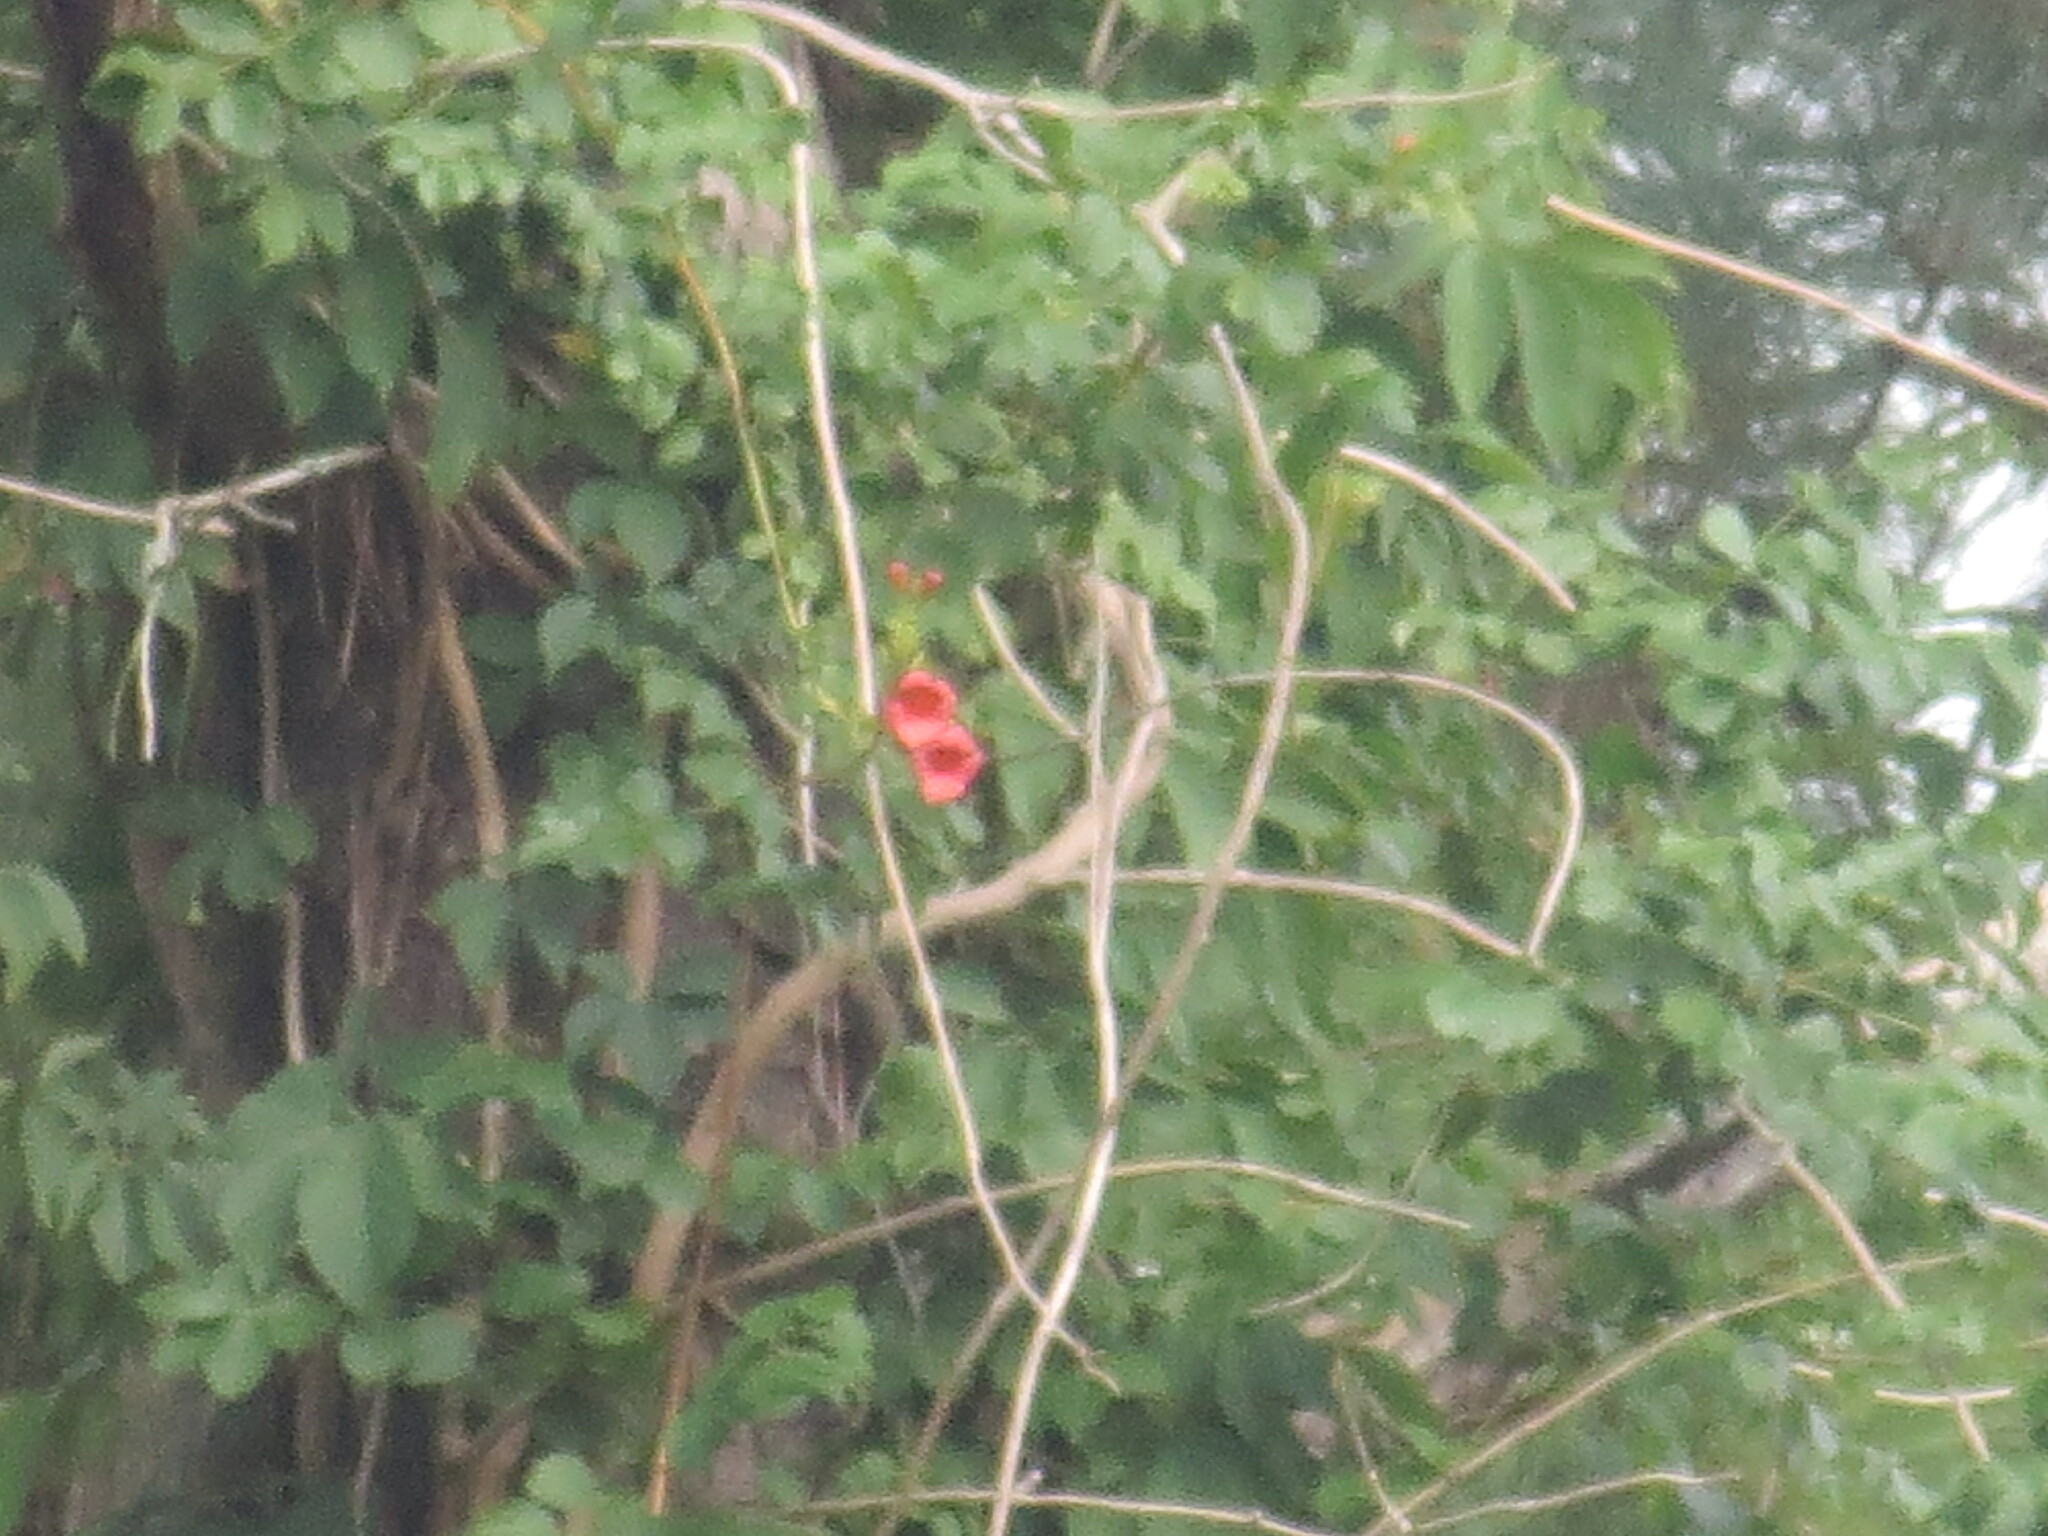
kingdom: Plantae
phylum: Tracheophyta
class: Magnoliopsida
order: Lamiales
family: Bignoniaceae
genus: Campsis
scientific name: Campsis radicans
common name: Trumpet-creeper
